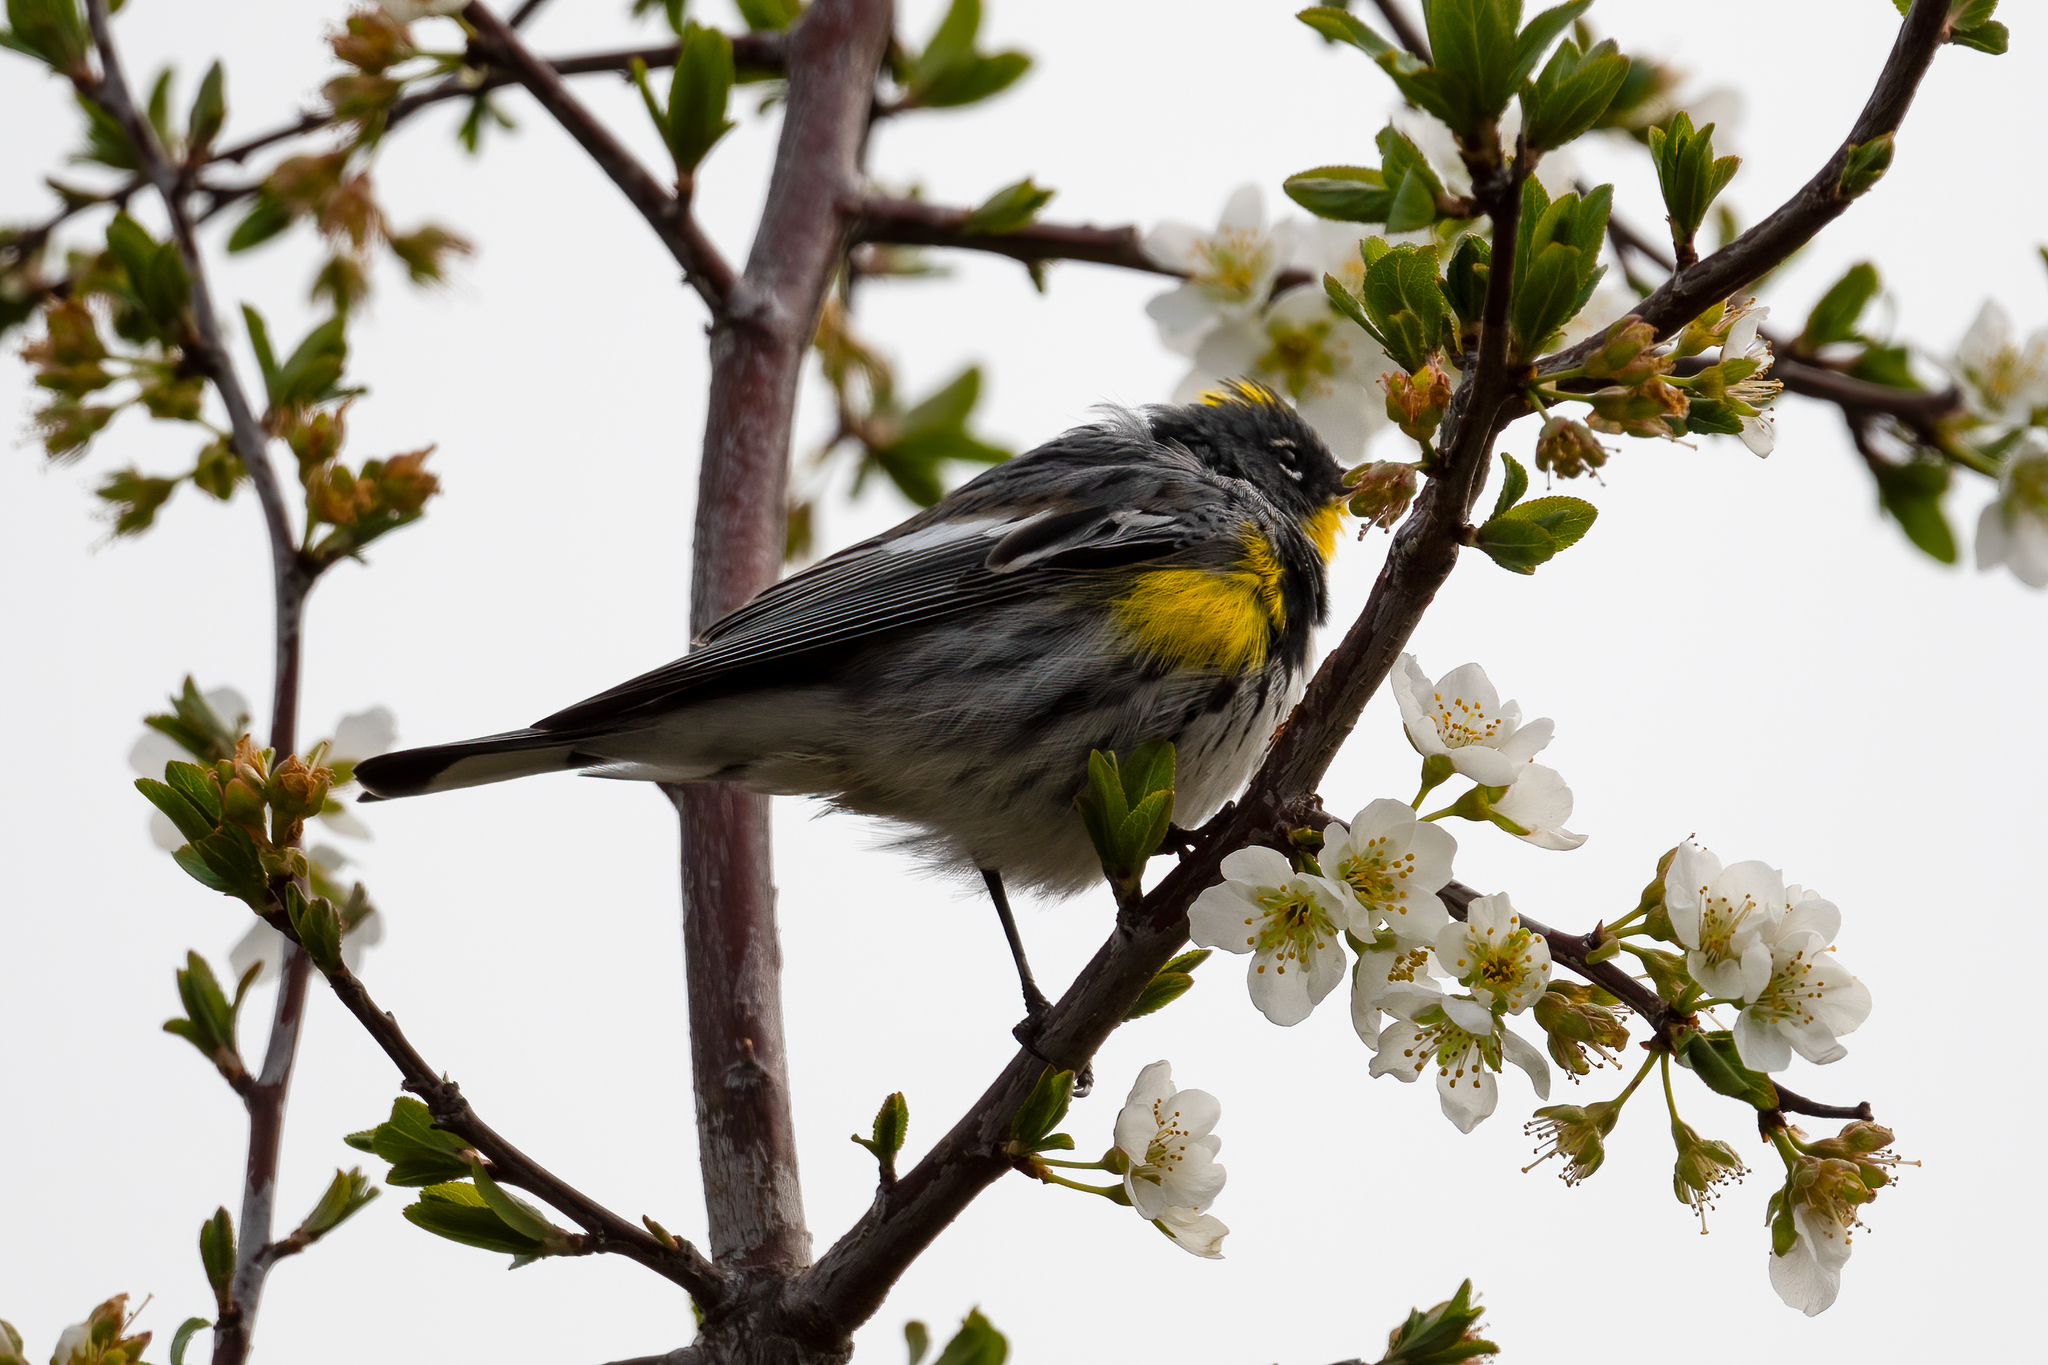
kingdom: Animalia
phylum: Chordata
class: Aves
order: Passeriformes
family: Parulidae
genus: Setophaga
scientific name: Setophaga auduboni
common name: Audubon's warbler
